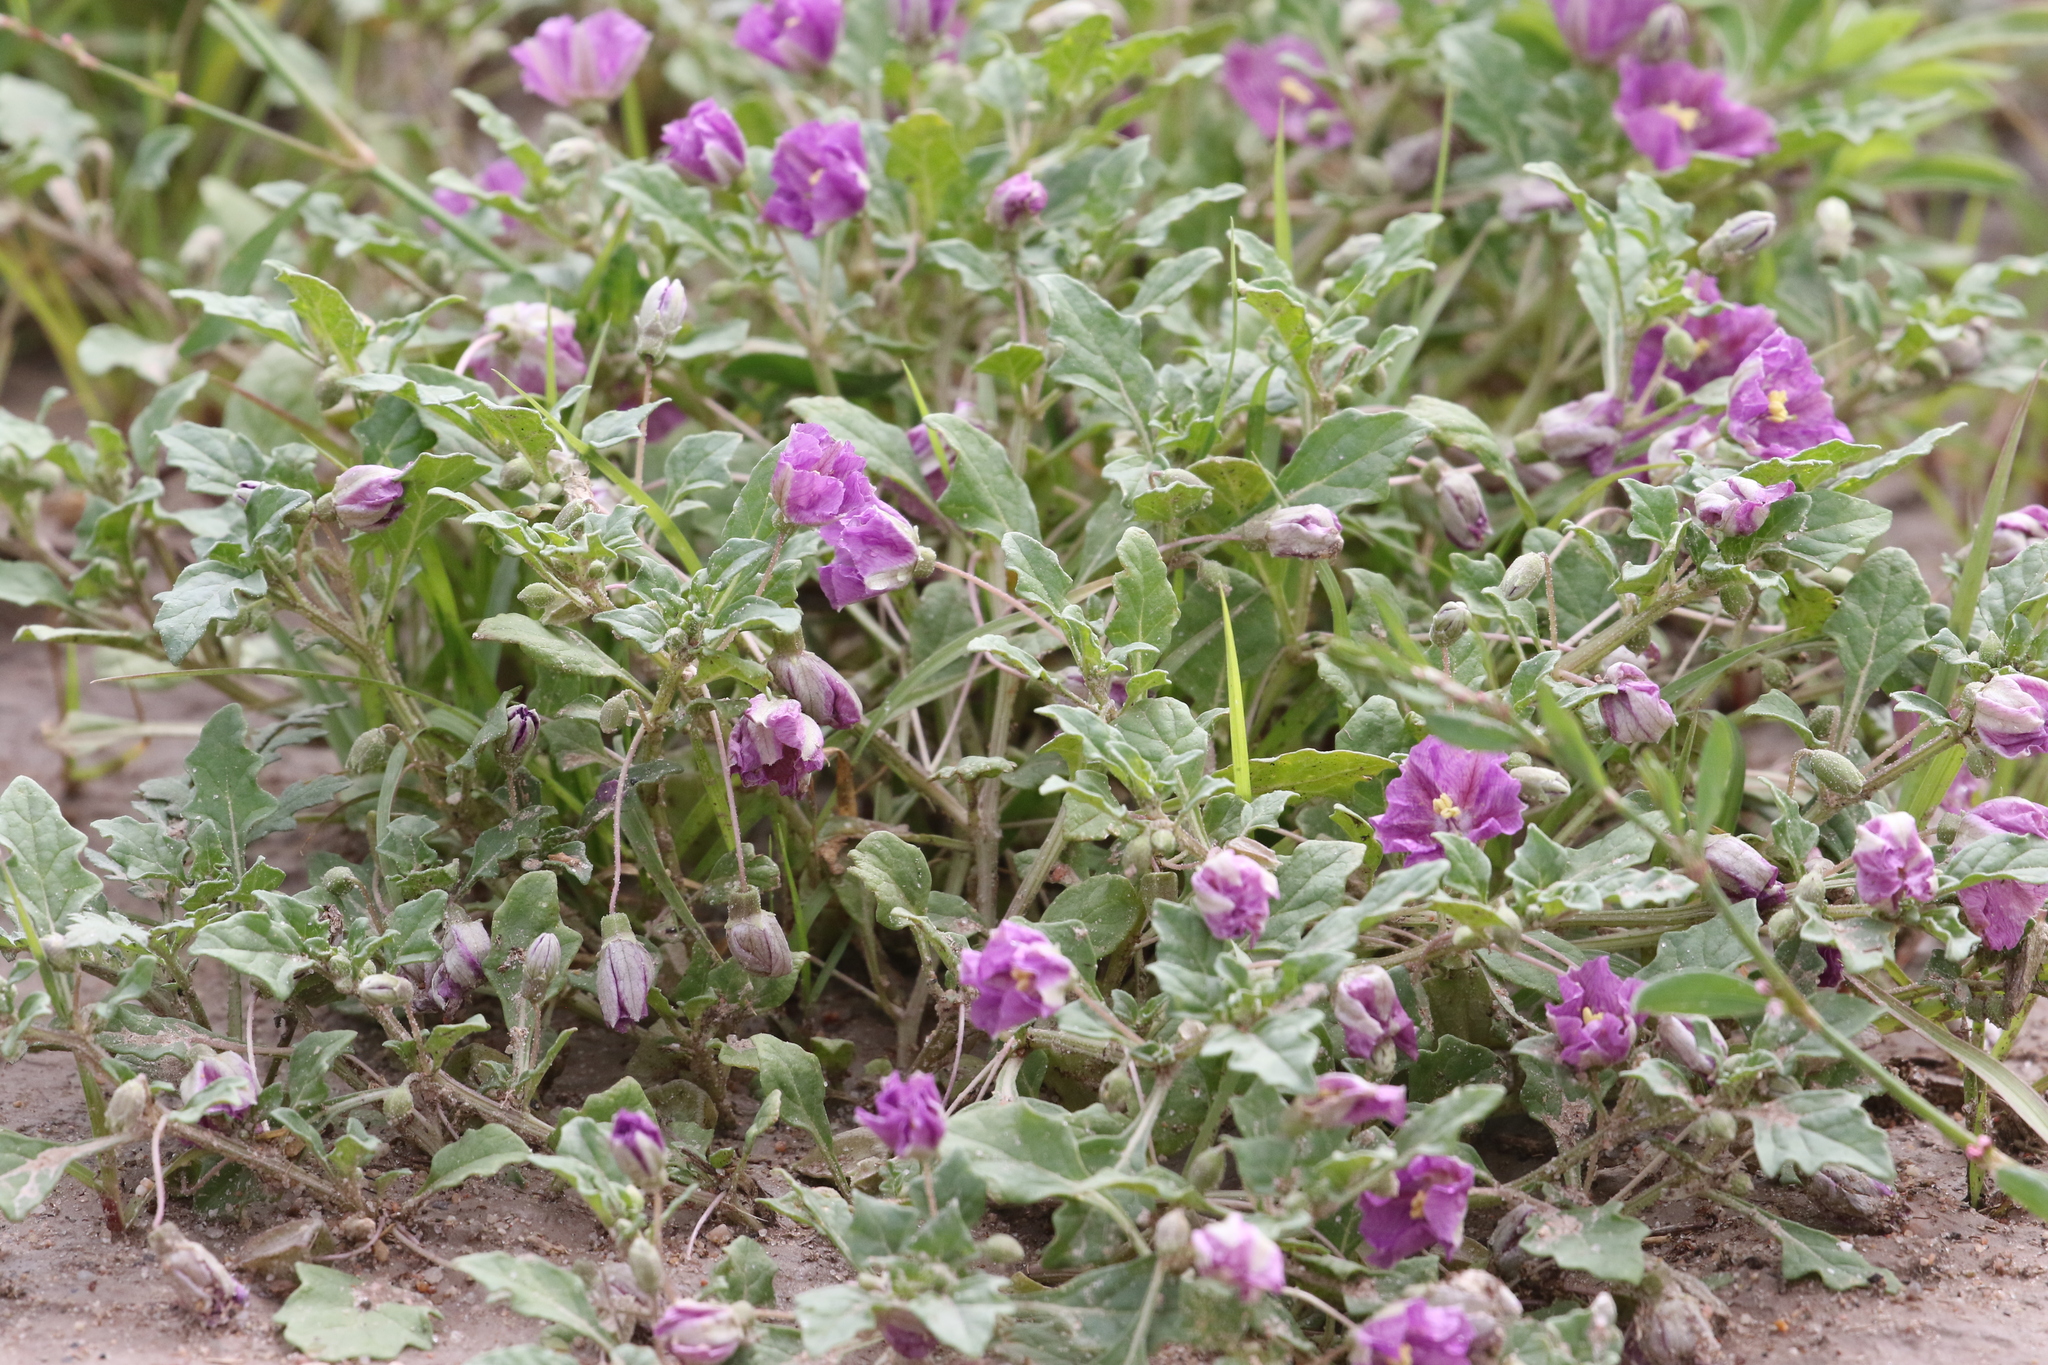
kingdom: Plantae
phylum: Tracheophyta
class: Magnoliopsida
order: Solanales
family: Solanaceae
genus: Quincula
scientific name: Quincula lobata
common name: Purple-ground-cherry
